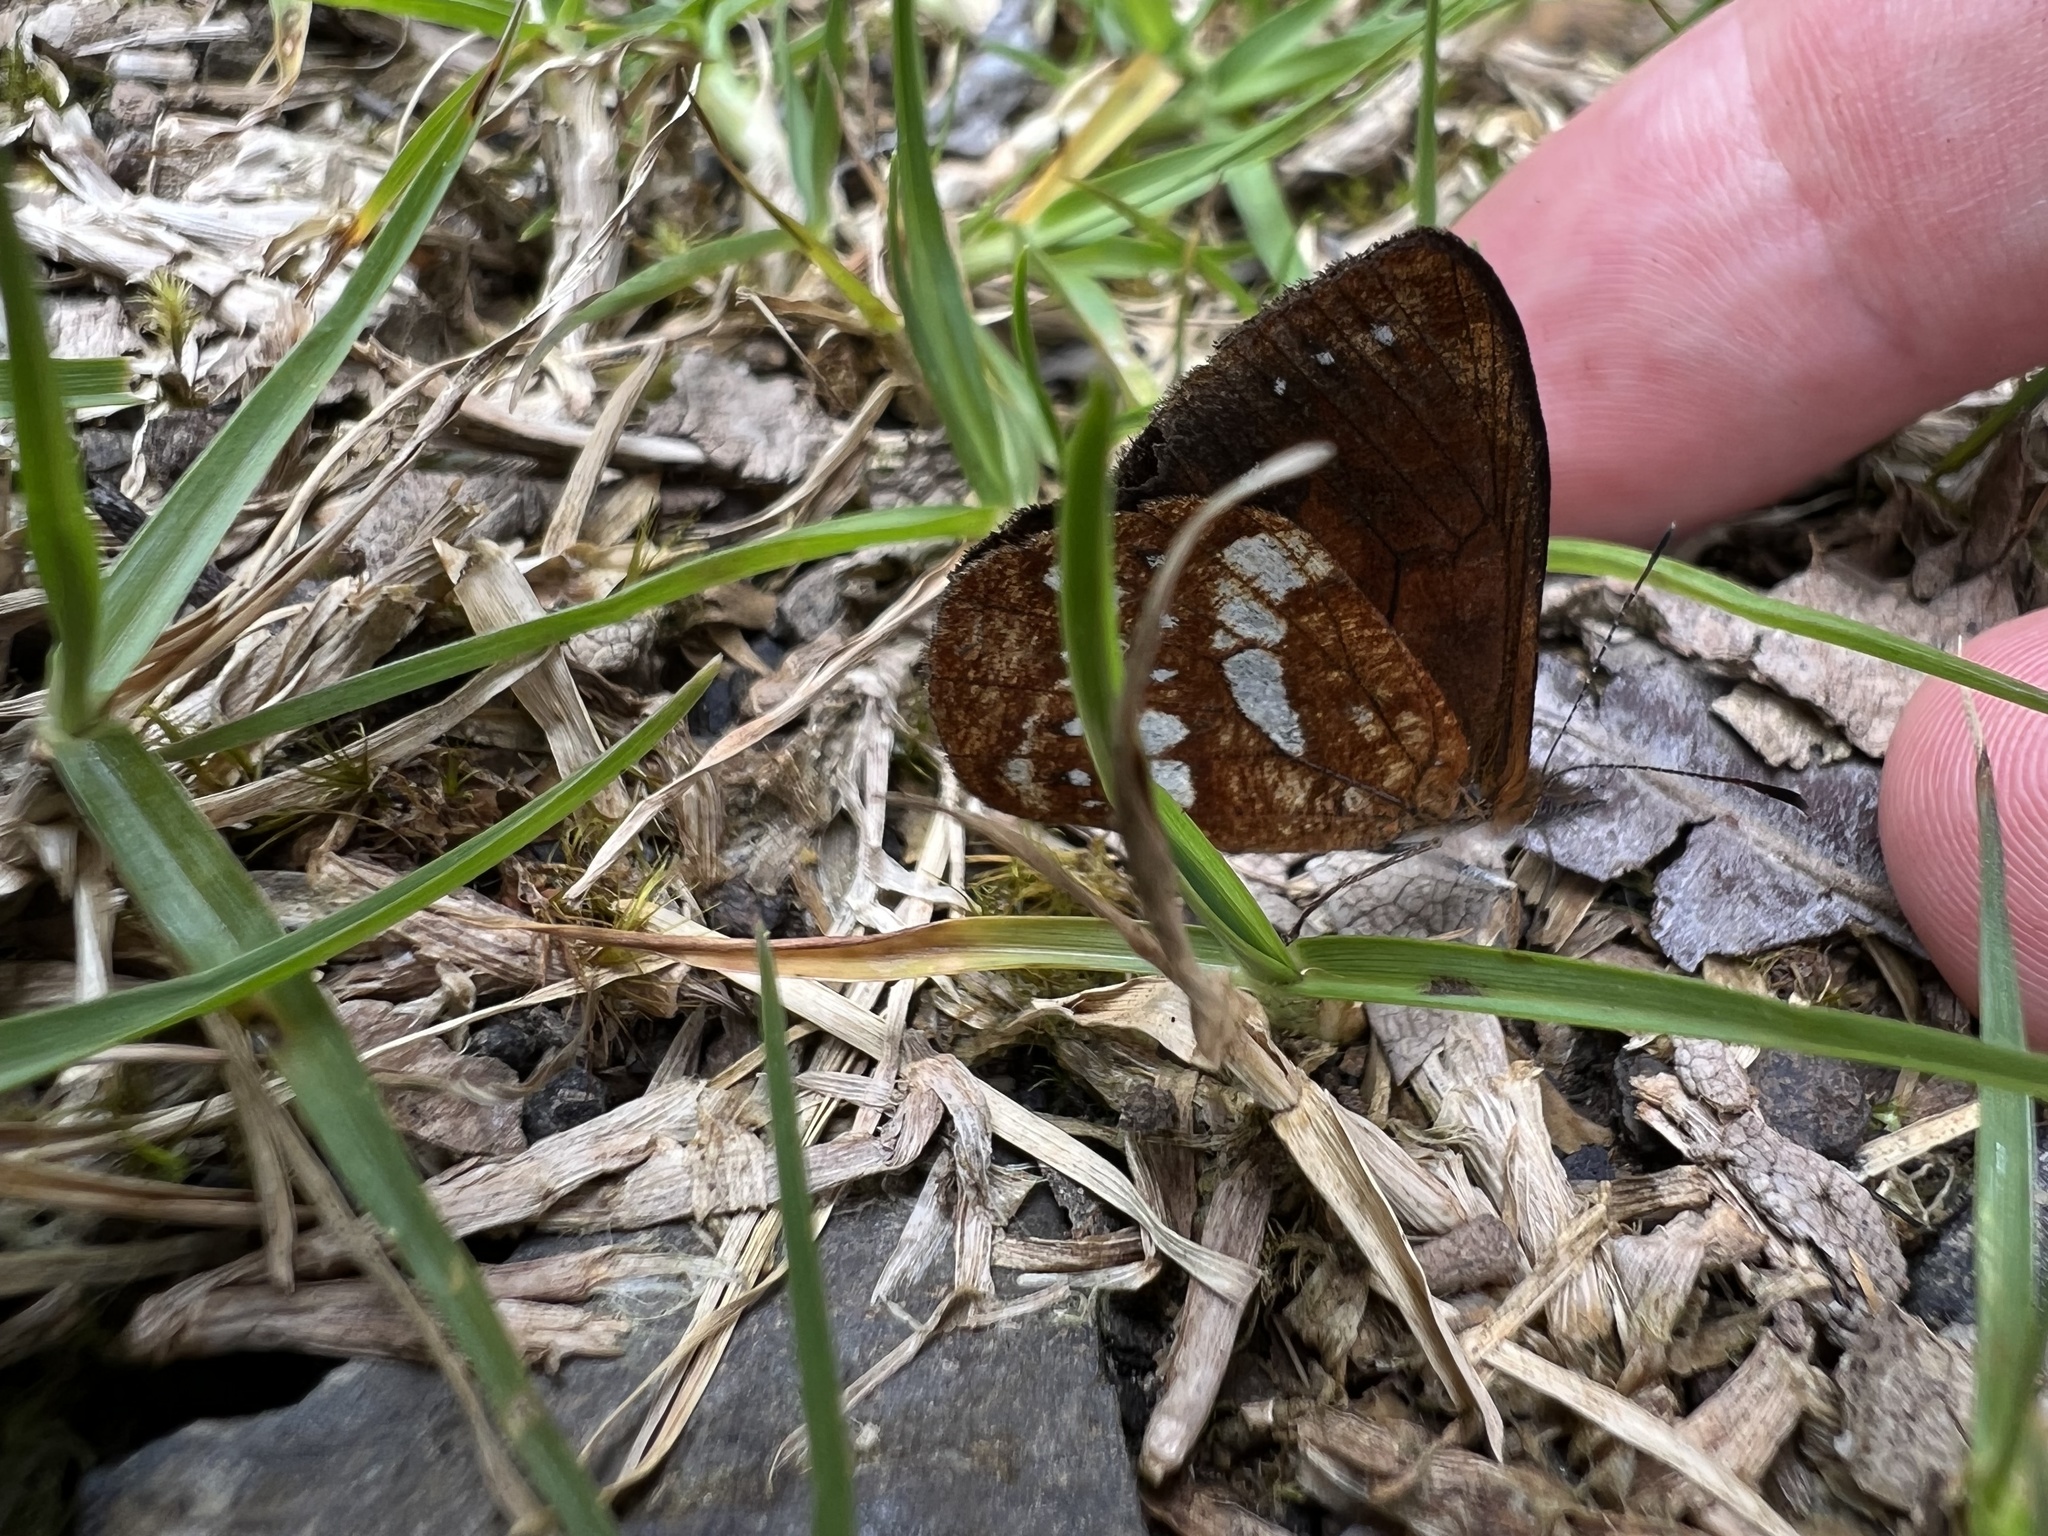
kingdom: Animalia
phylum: Arthropoda
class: Insecta
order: Lepidoptera
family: Nymphalidae
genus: Lymanopoda
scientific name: Lymanopoda labda
